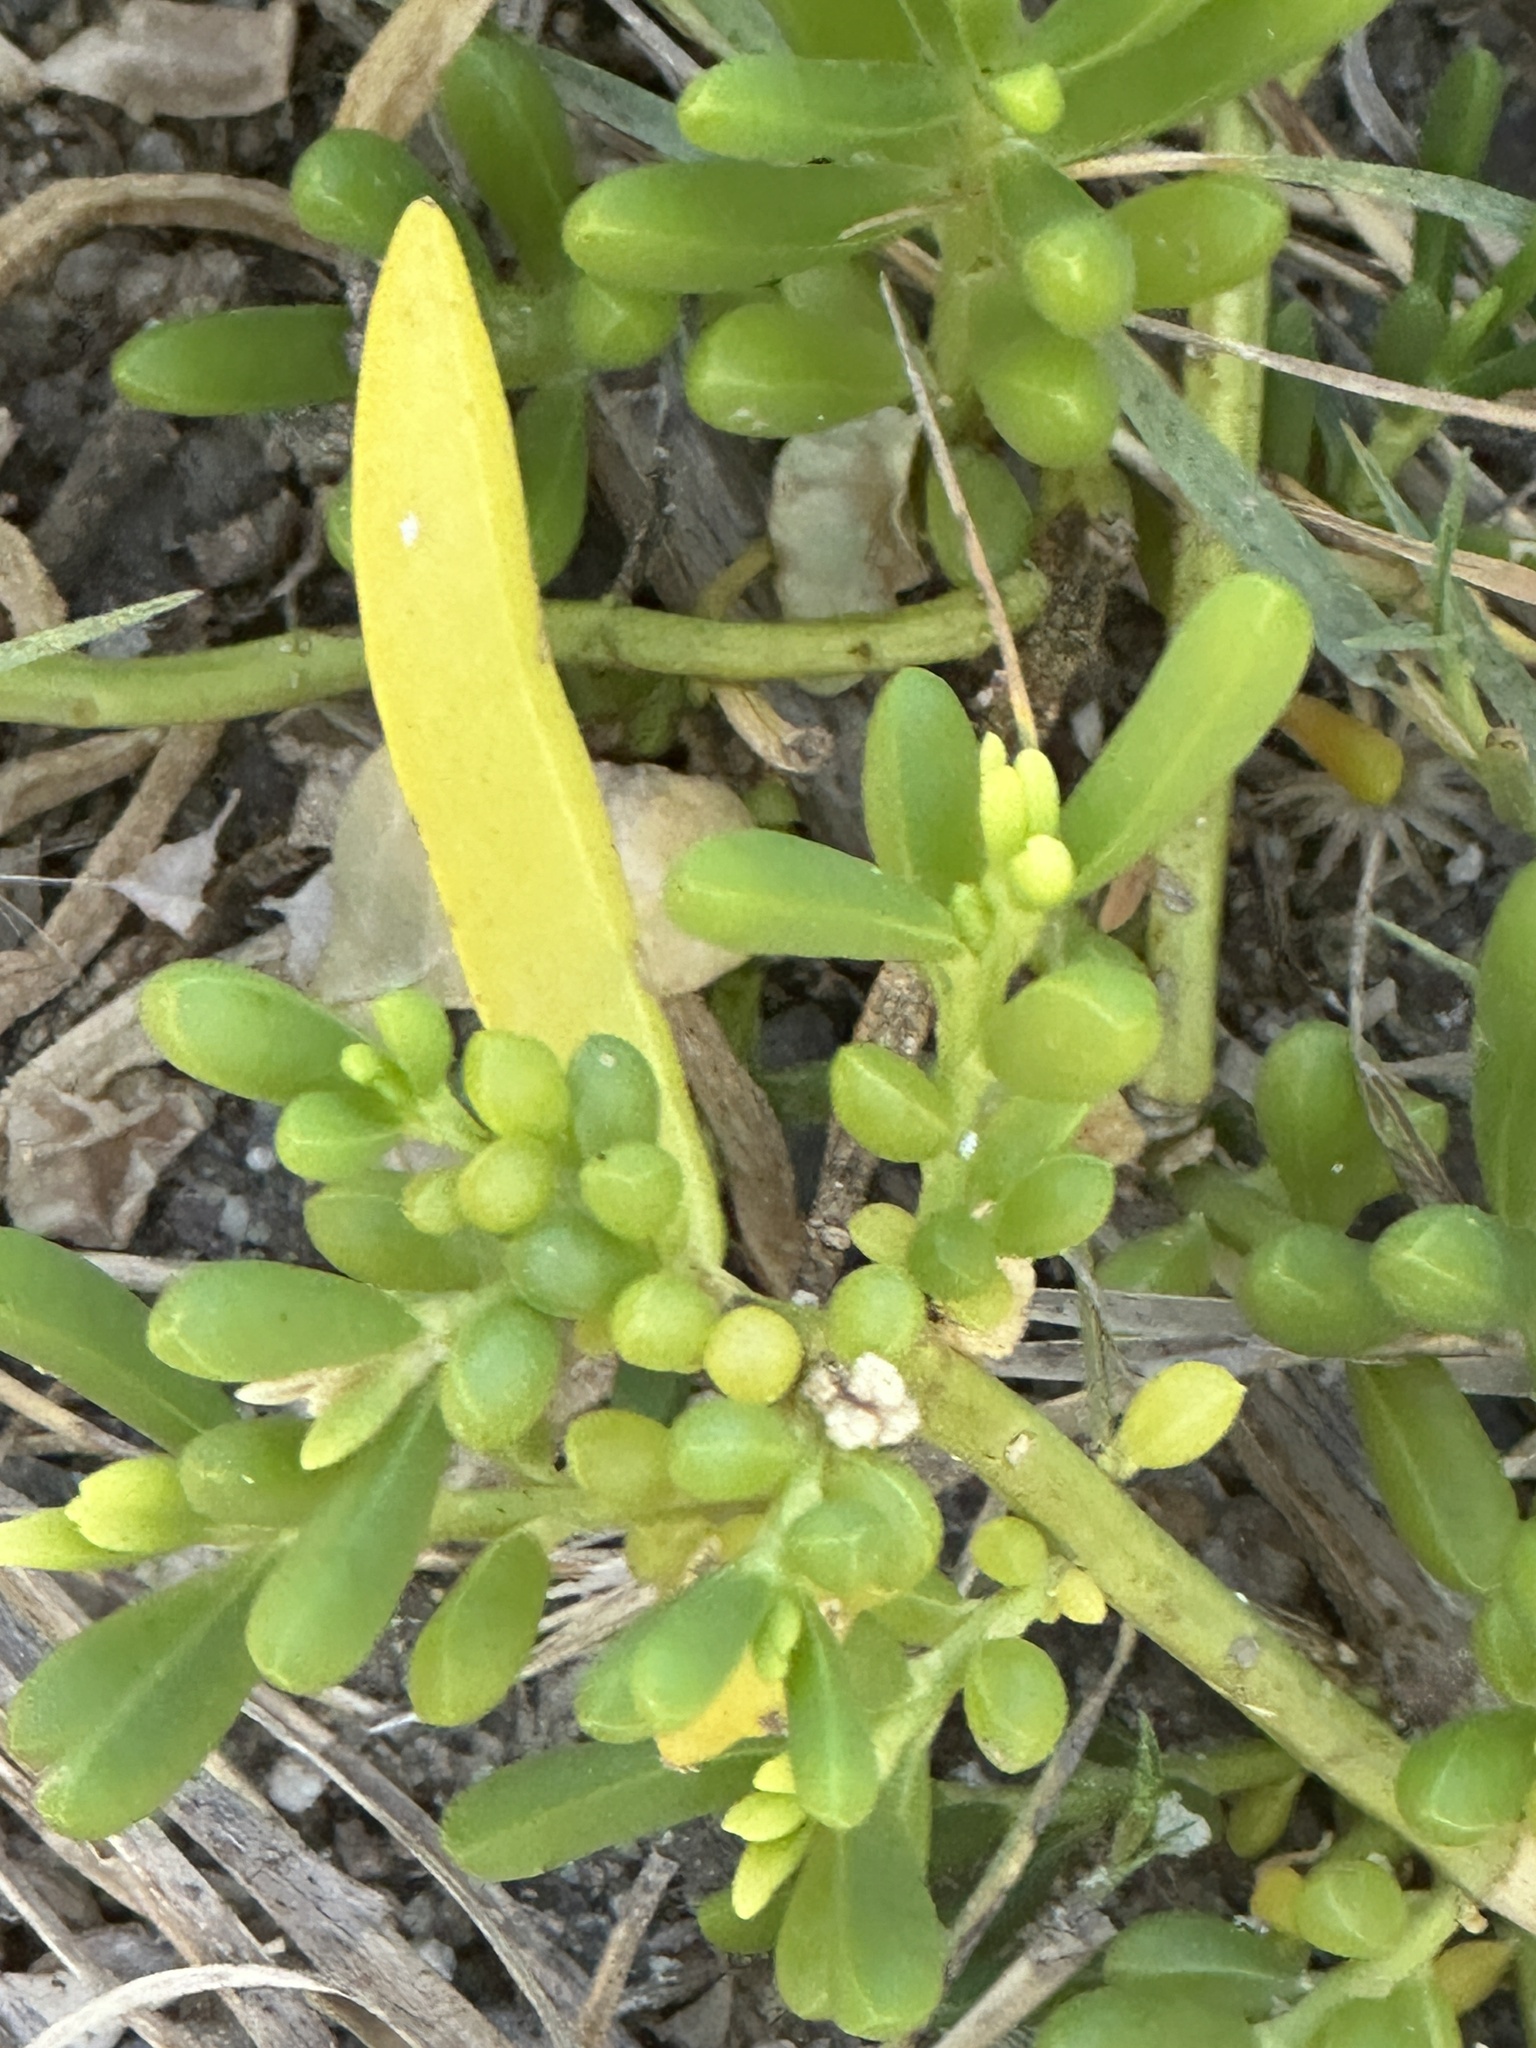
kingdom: Plantae
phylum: Tracheophyta
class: Magnoliopsida
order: Brassicales
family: Bataceae
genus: Batis
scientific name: Batis maritima
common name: Turtleweed
